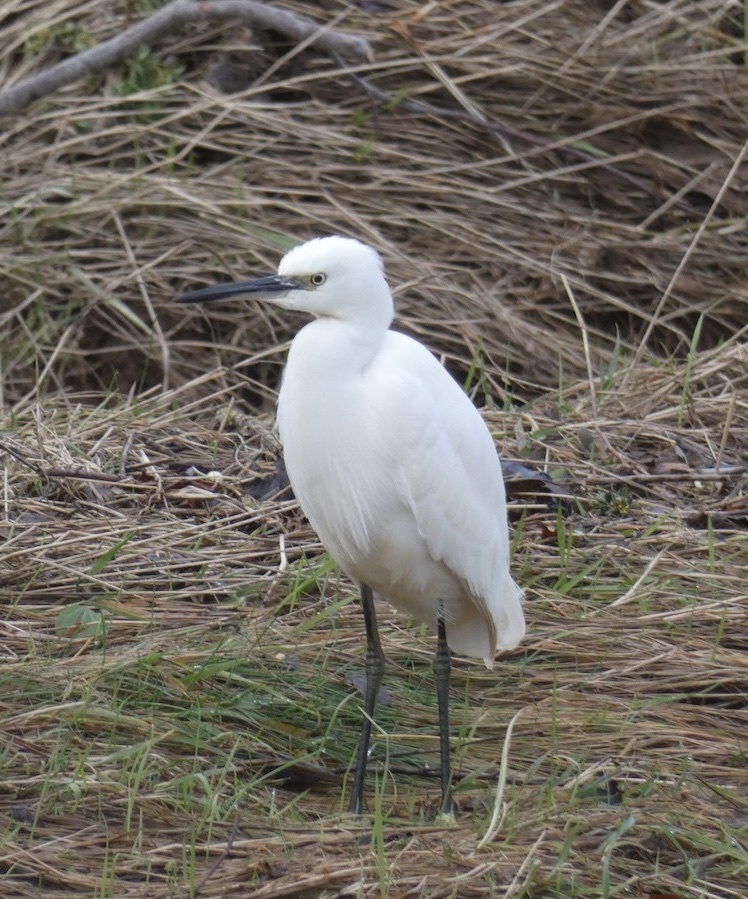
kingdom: Animalia
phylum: Chordata
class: Aves
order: Pelecaniformes
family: Ardeidae
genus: Egretta
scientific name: Egretta garzetta
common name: Little egret
